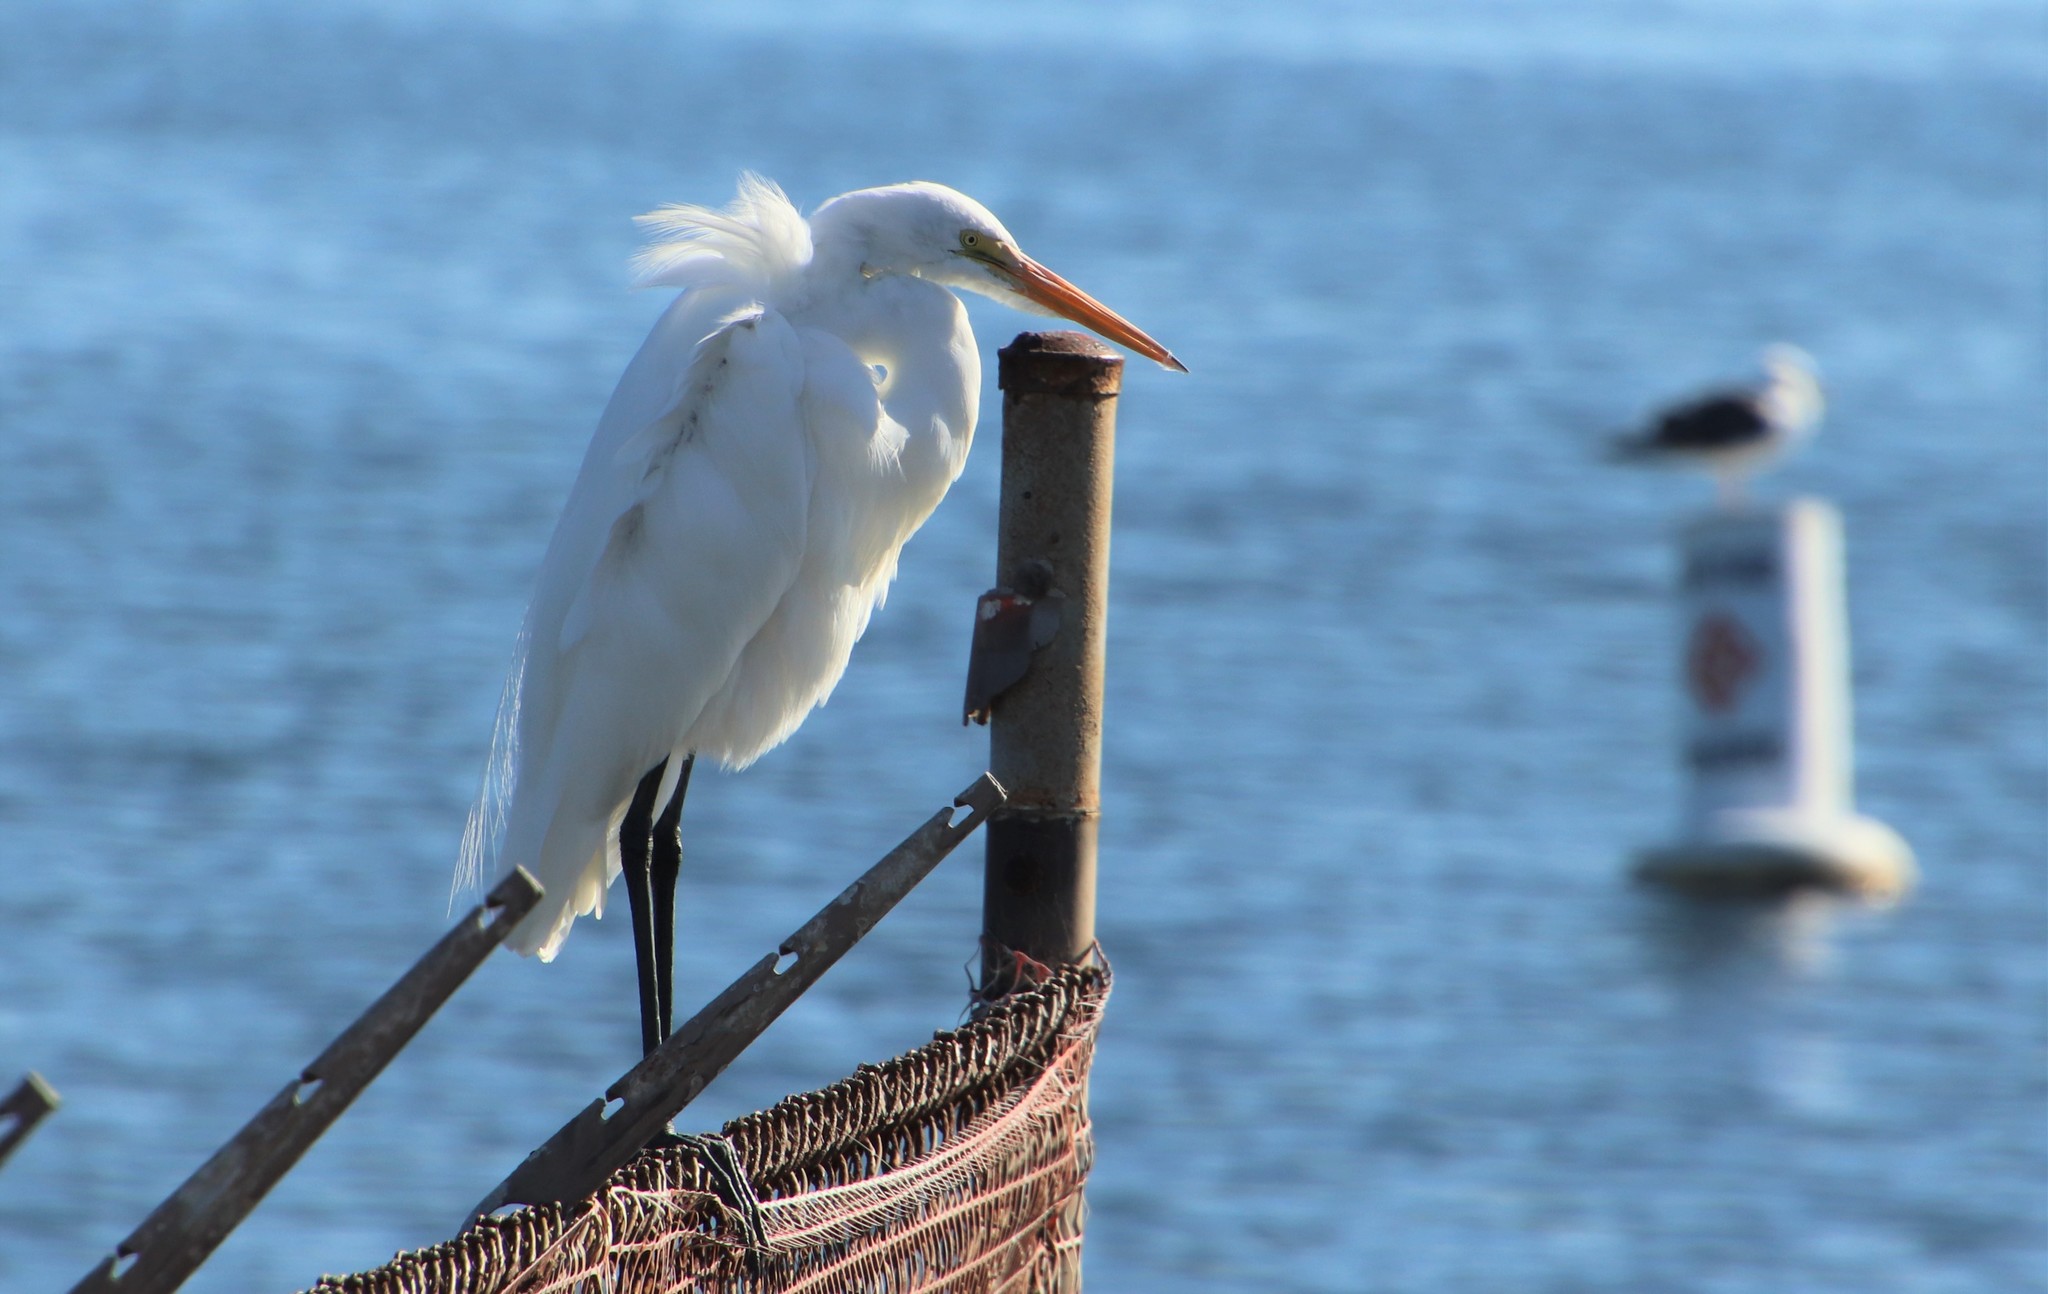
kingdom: Animalia
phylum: Chordata
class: Aves
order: Pelecaniformes
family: Ardeidae
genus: Ardea
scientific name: Ardea alba
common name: Great egret
